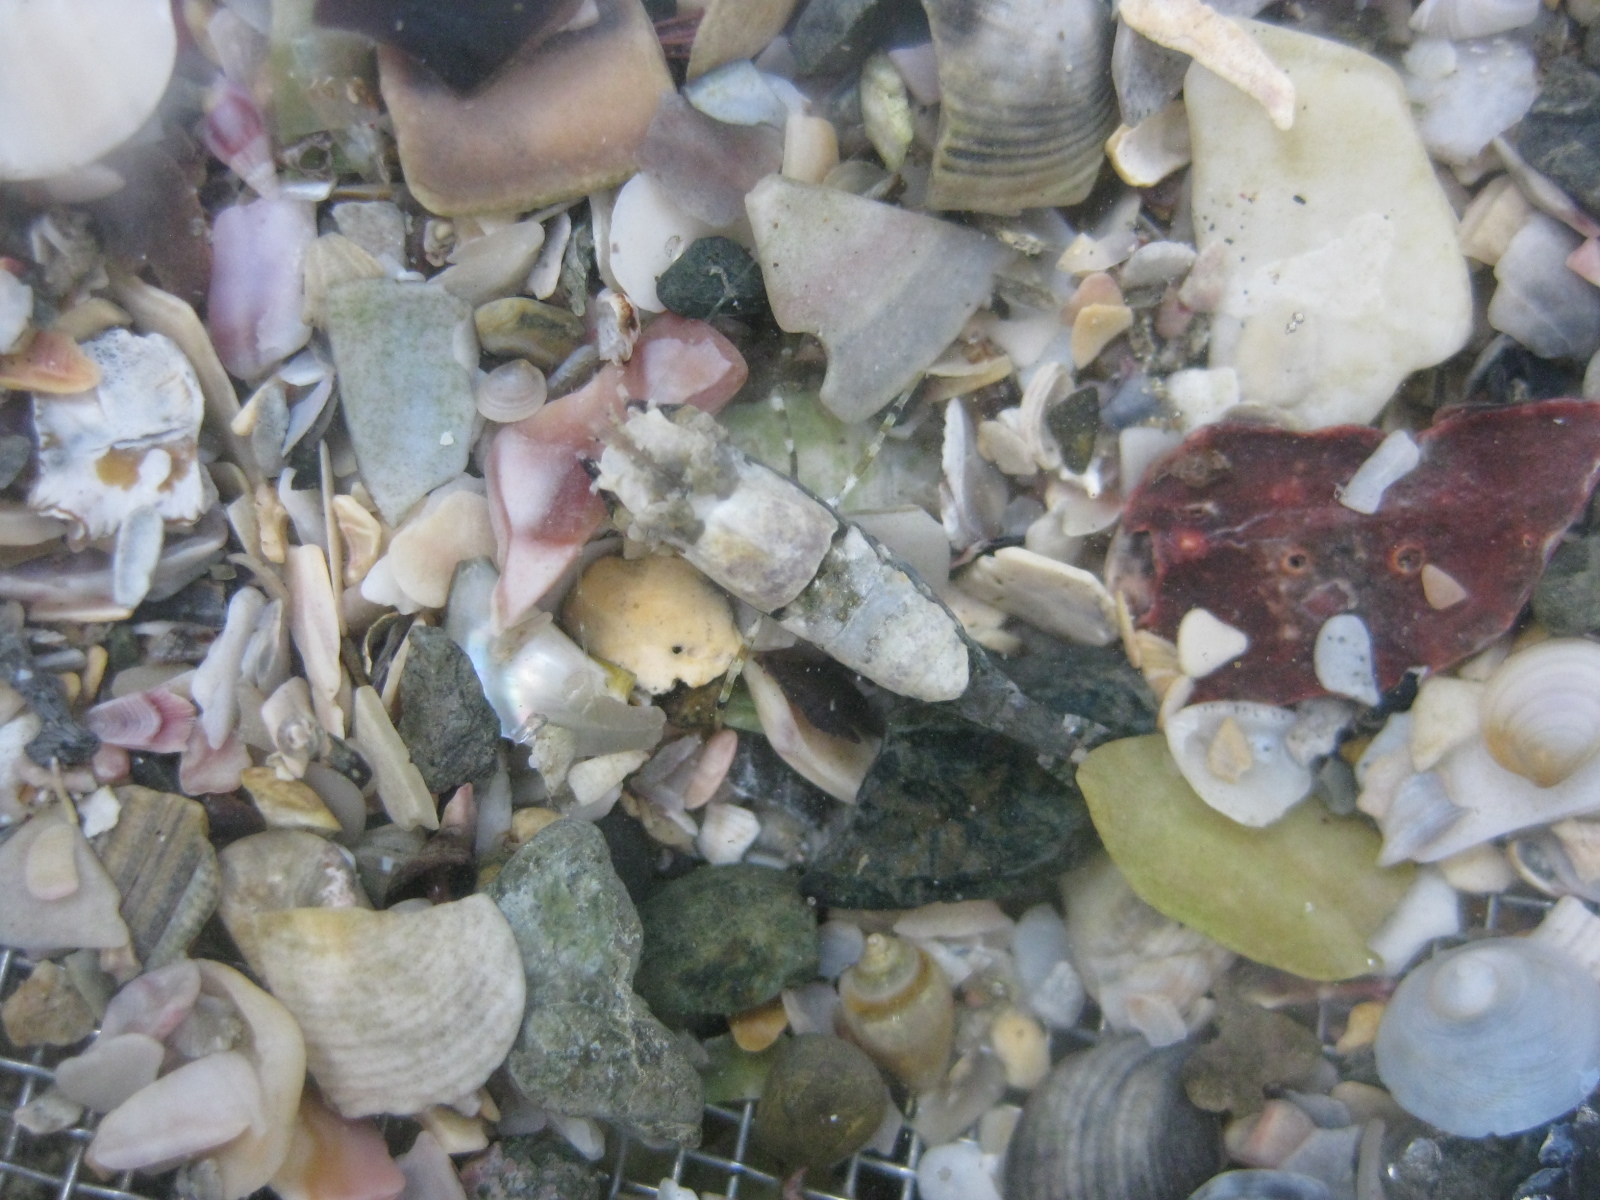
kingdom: Animalia
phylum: Arthropoda
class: Malacostraca
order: Decapoda
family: Crangonidae
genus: Philocheras
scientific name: Philocheras australis
